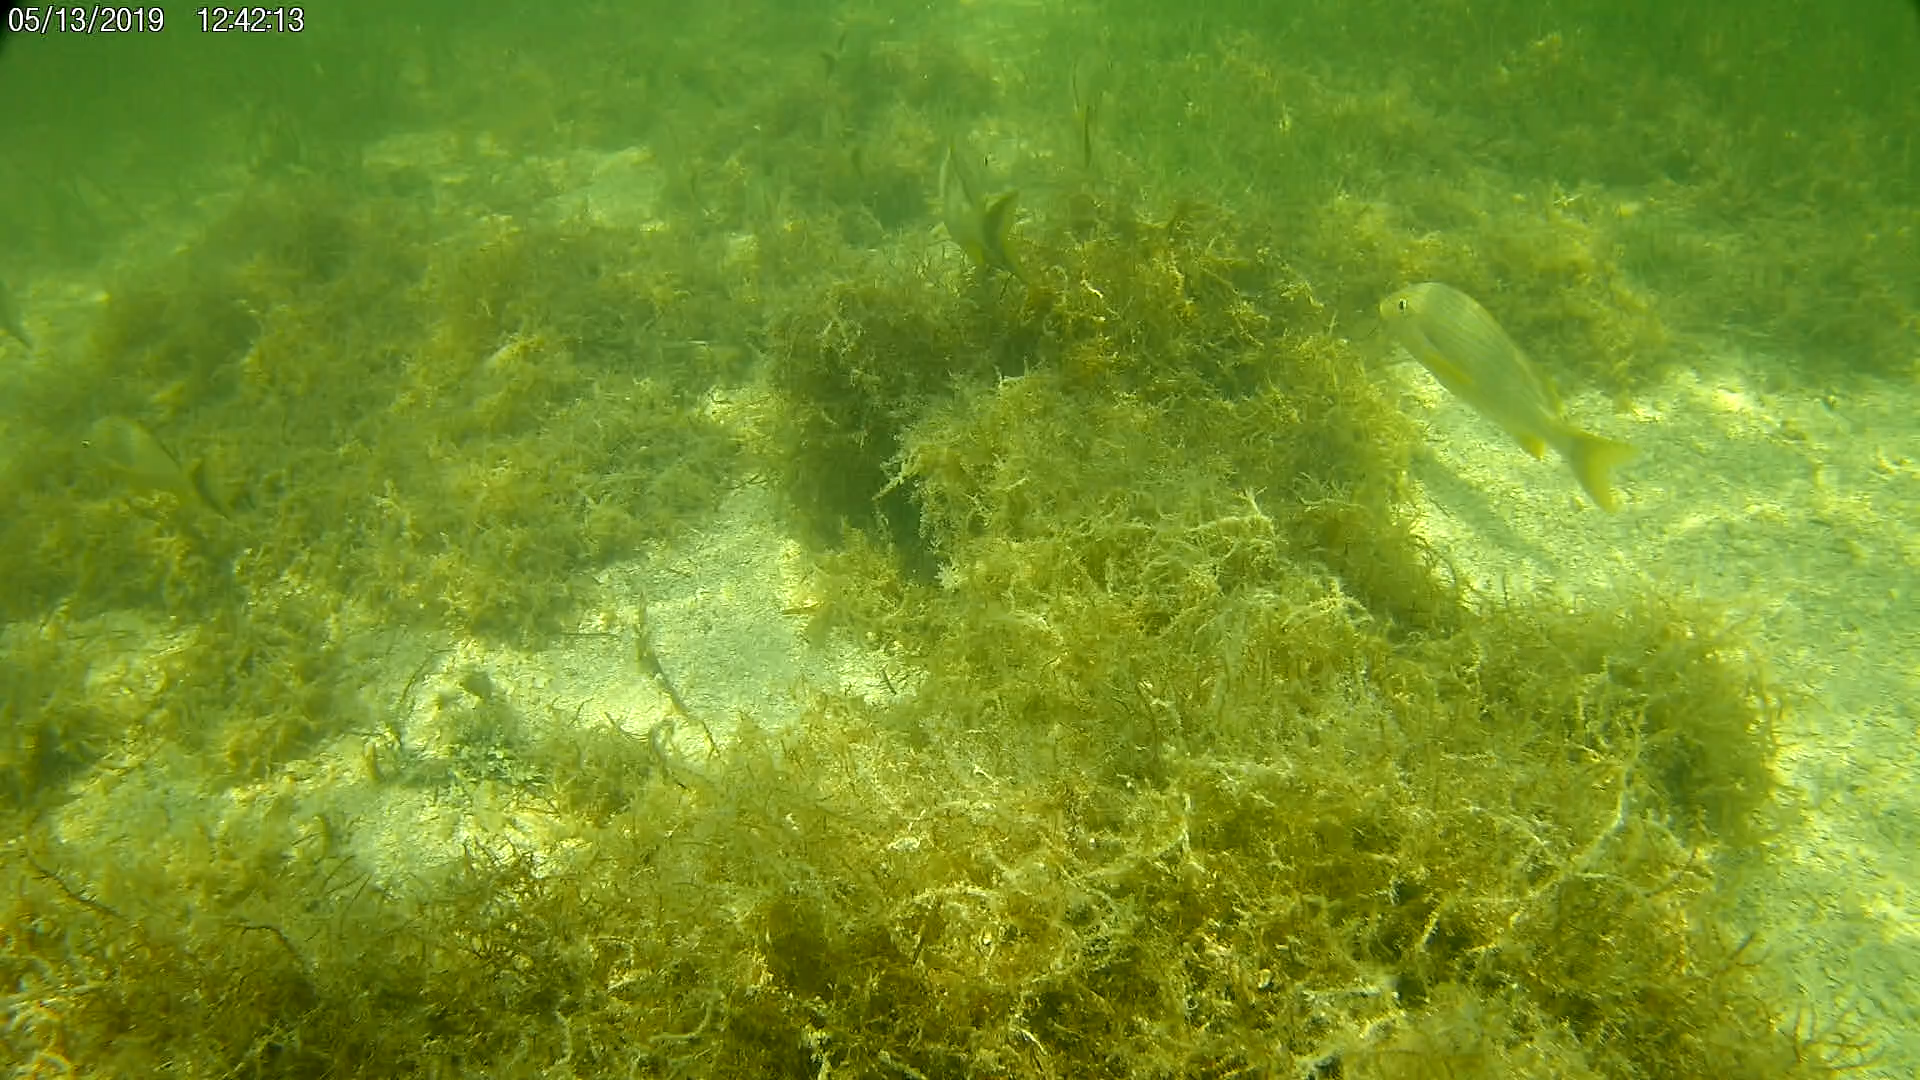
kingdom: Animalia
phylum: Chordata
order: Perciformes
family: Haemulidae
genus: Haemulon
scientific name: Haemulon sciurus
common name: Bluestriped grunt
